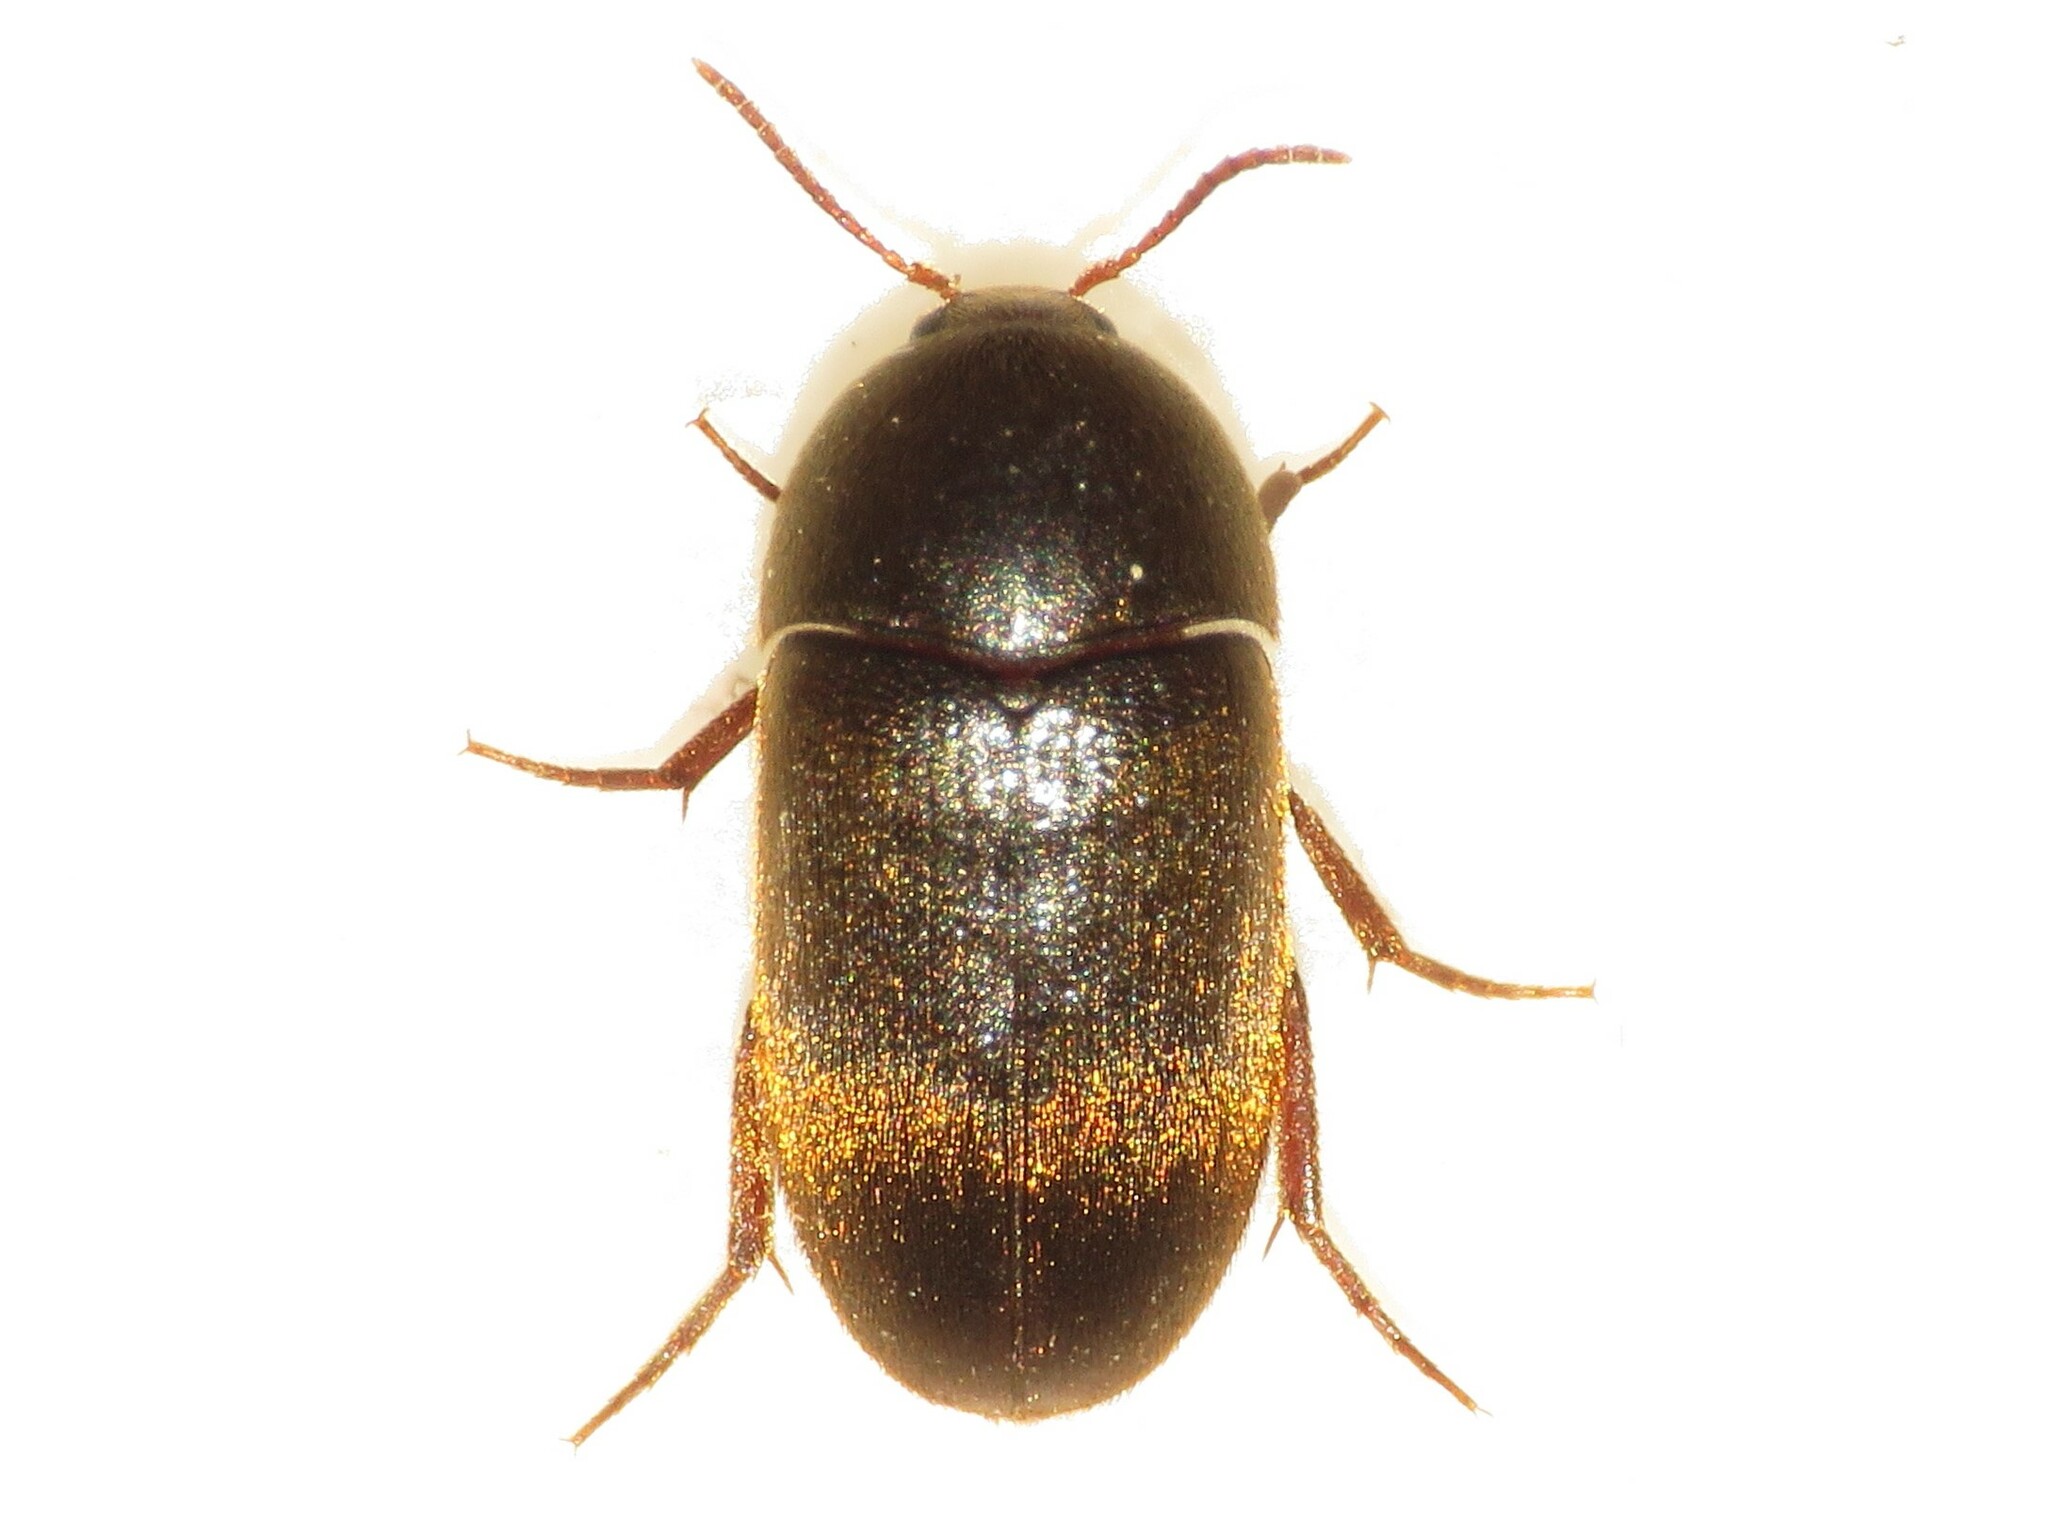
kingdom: Animalia
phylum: Arthropoda
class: Insecta
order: Coleoptera
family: Tetratomidae
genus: Eustrophus
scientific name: Eustrophus tomentosus
